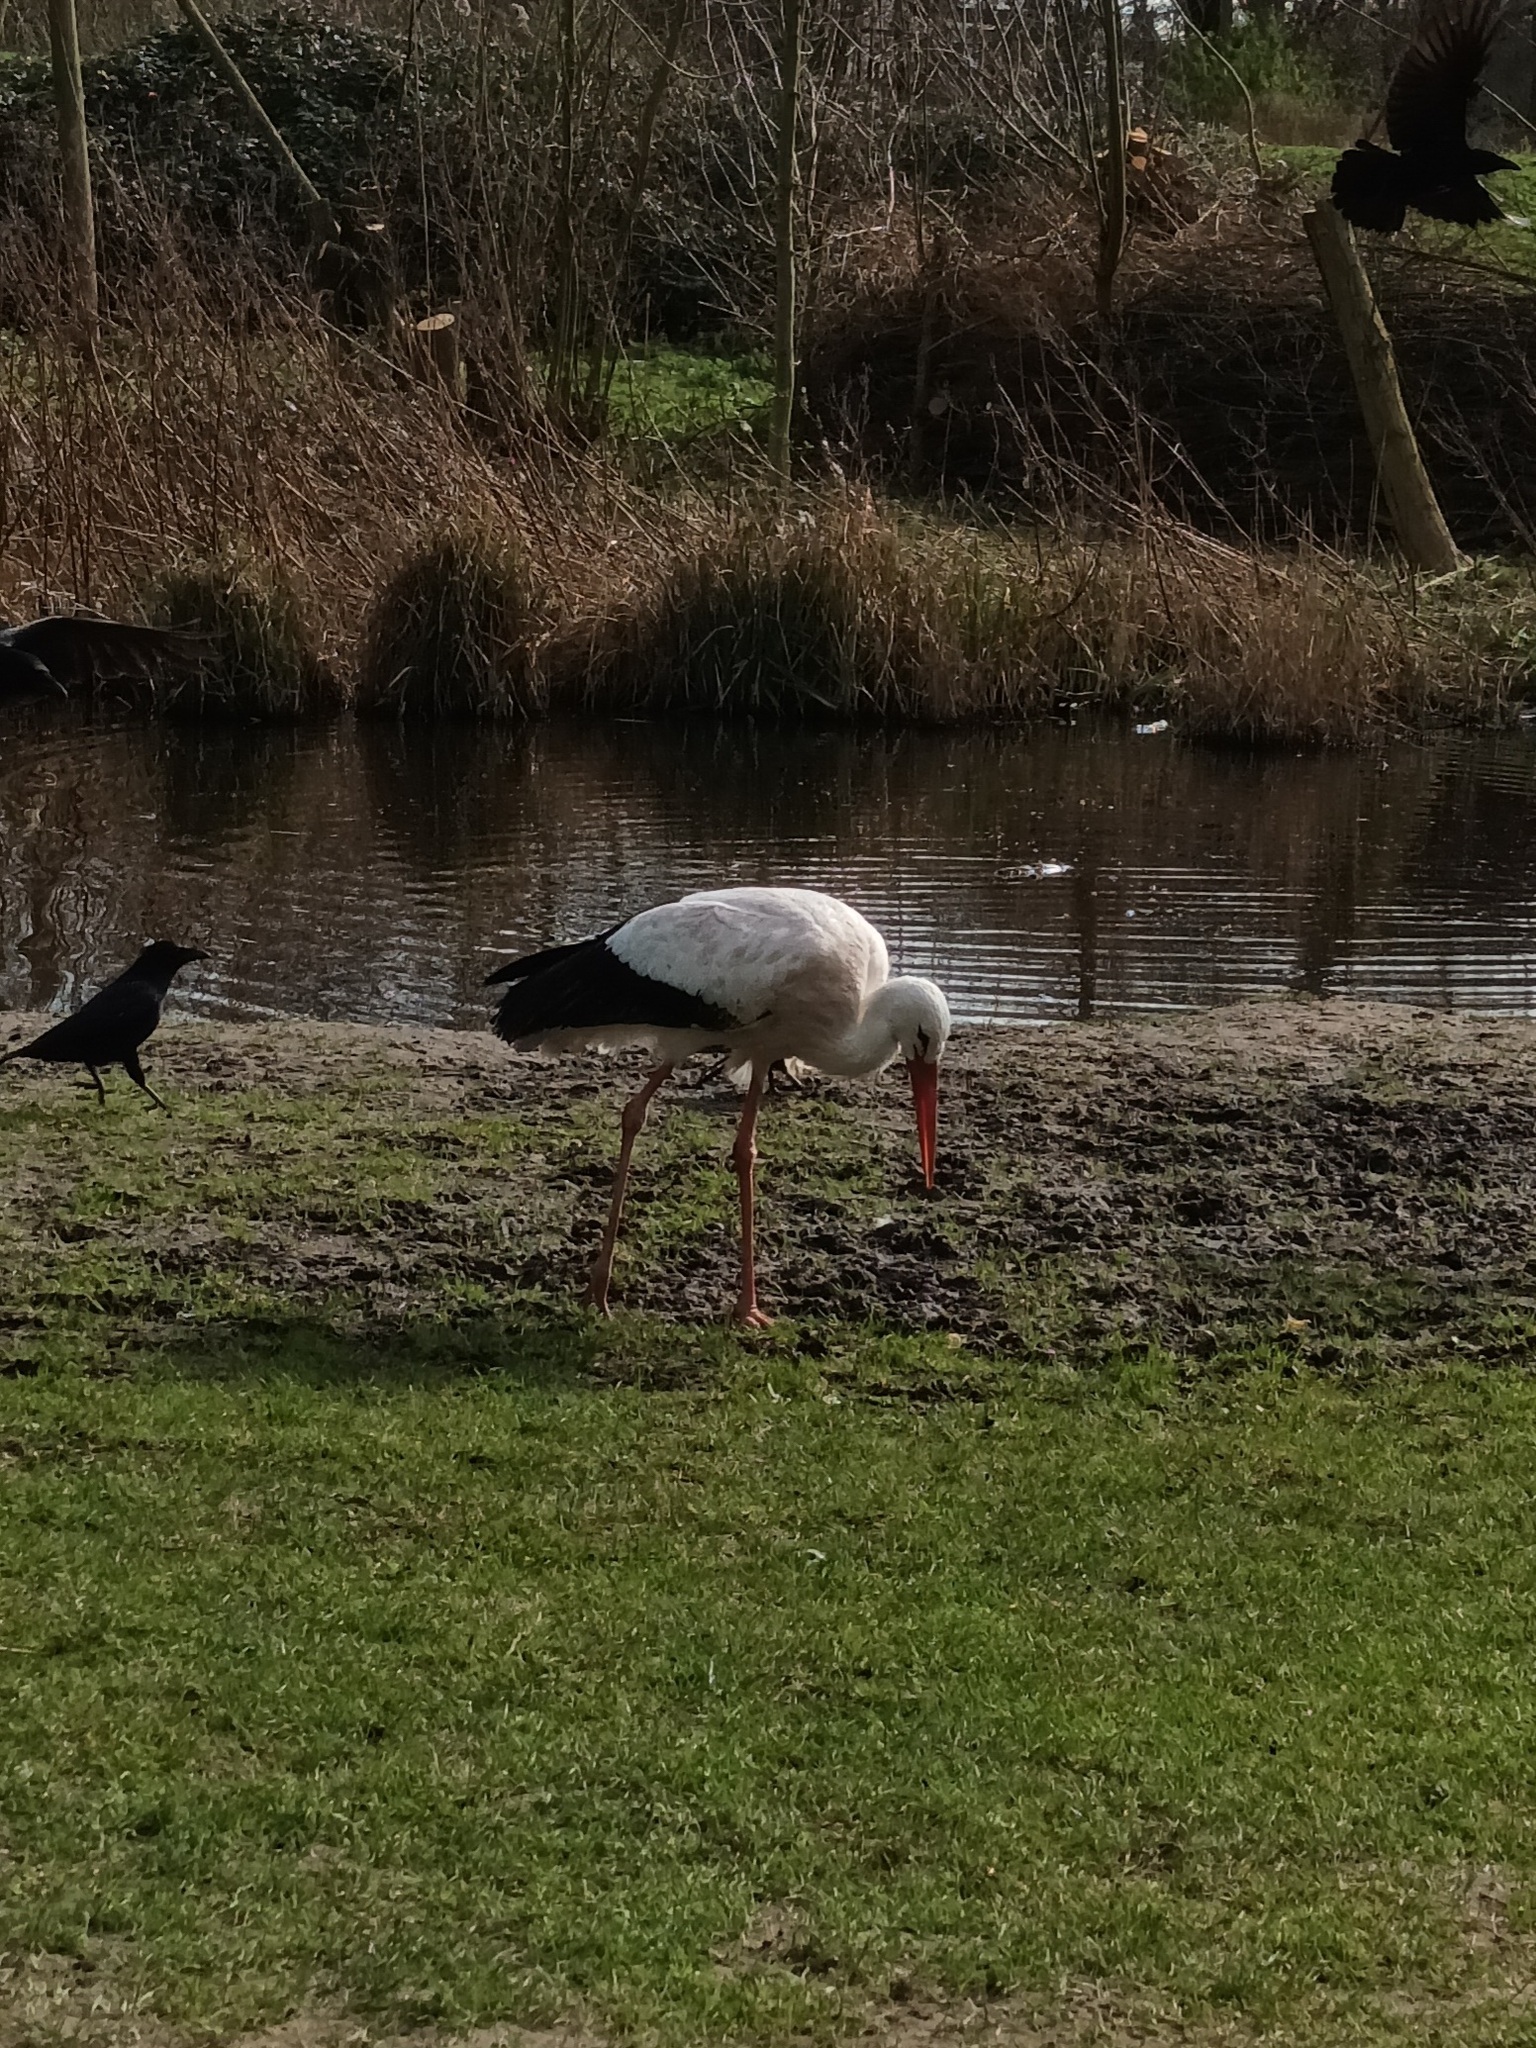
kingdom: Animalia
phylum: Chordata
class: Aves
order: Ciconiiformes
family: Ciconiidae
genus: Ciconia
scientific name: Ciconia ciconia
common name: White stork
